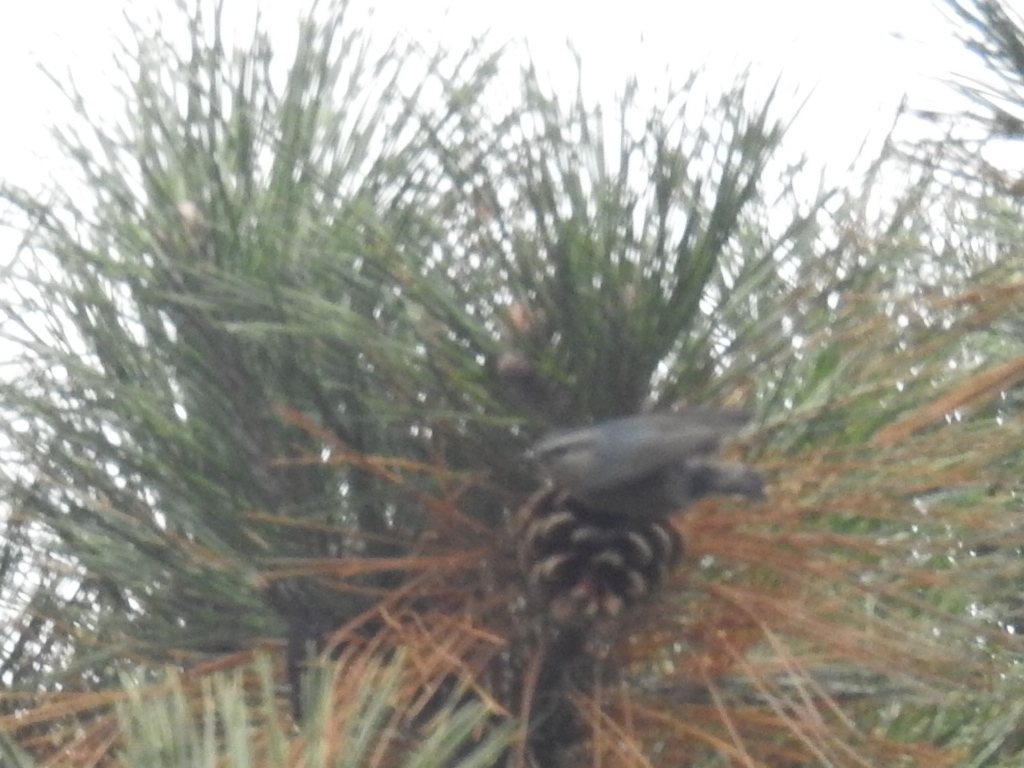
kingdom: Animalia
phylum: Chordata
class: Aves
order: Passeriformes
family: Sittidae
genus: Sitta
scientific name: Sitta villosa
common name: Chinese nuthatch
